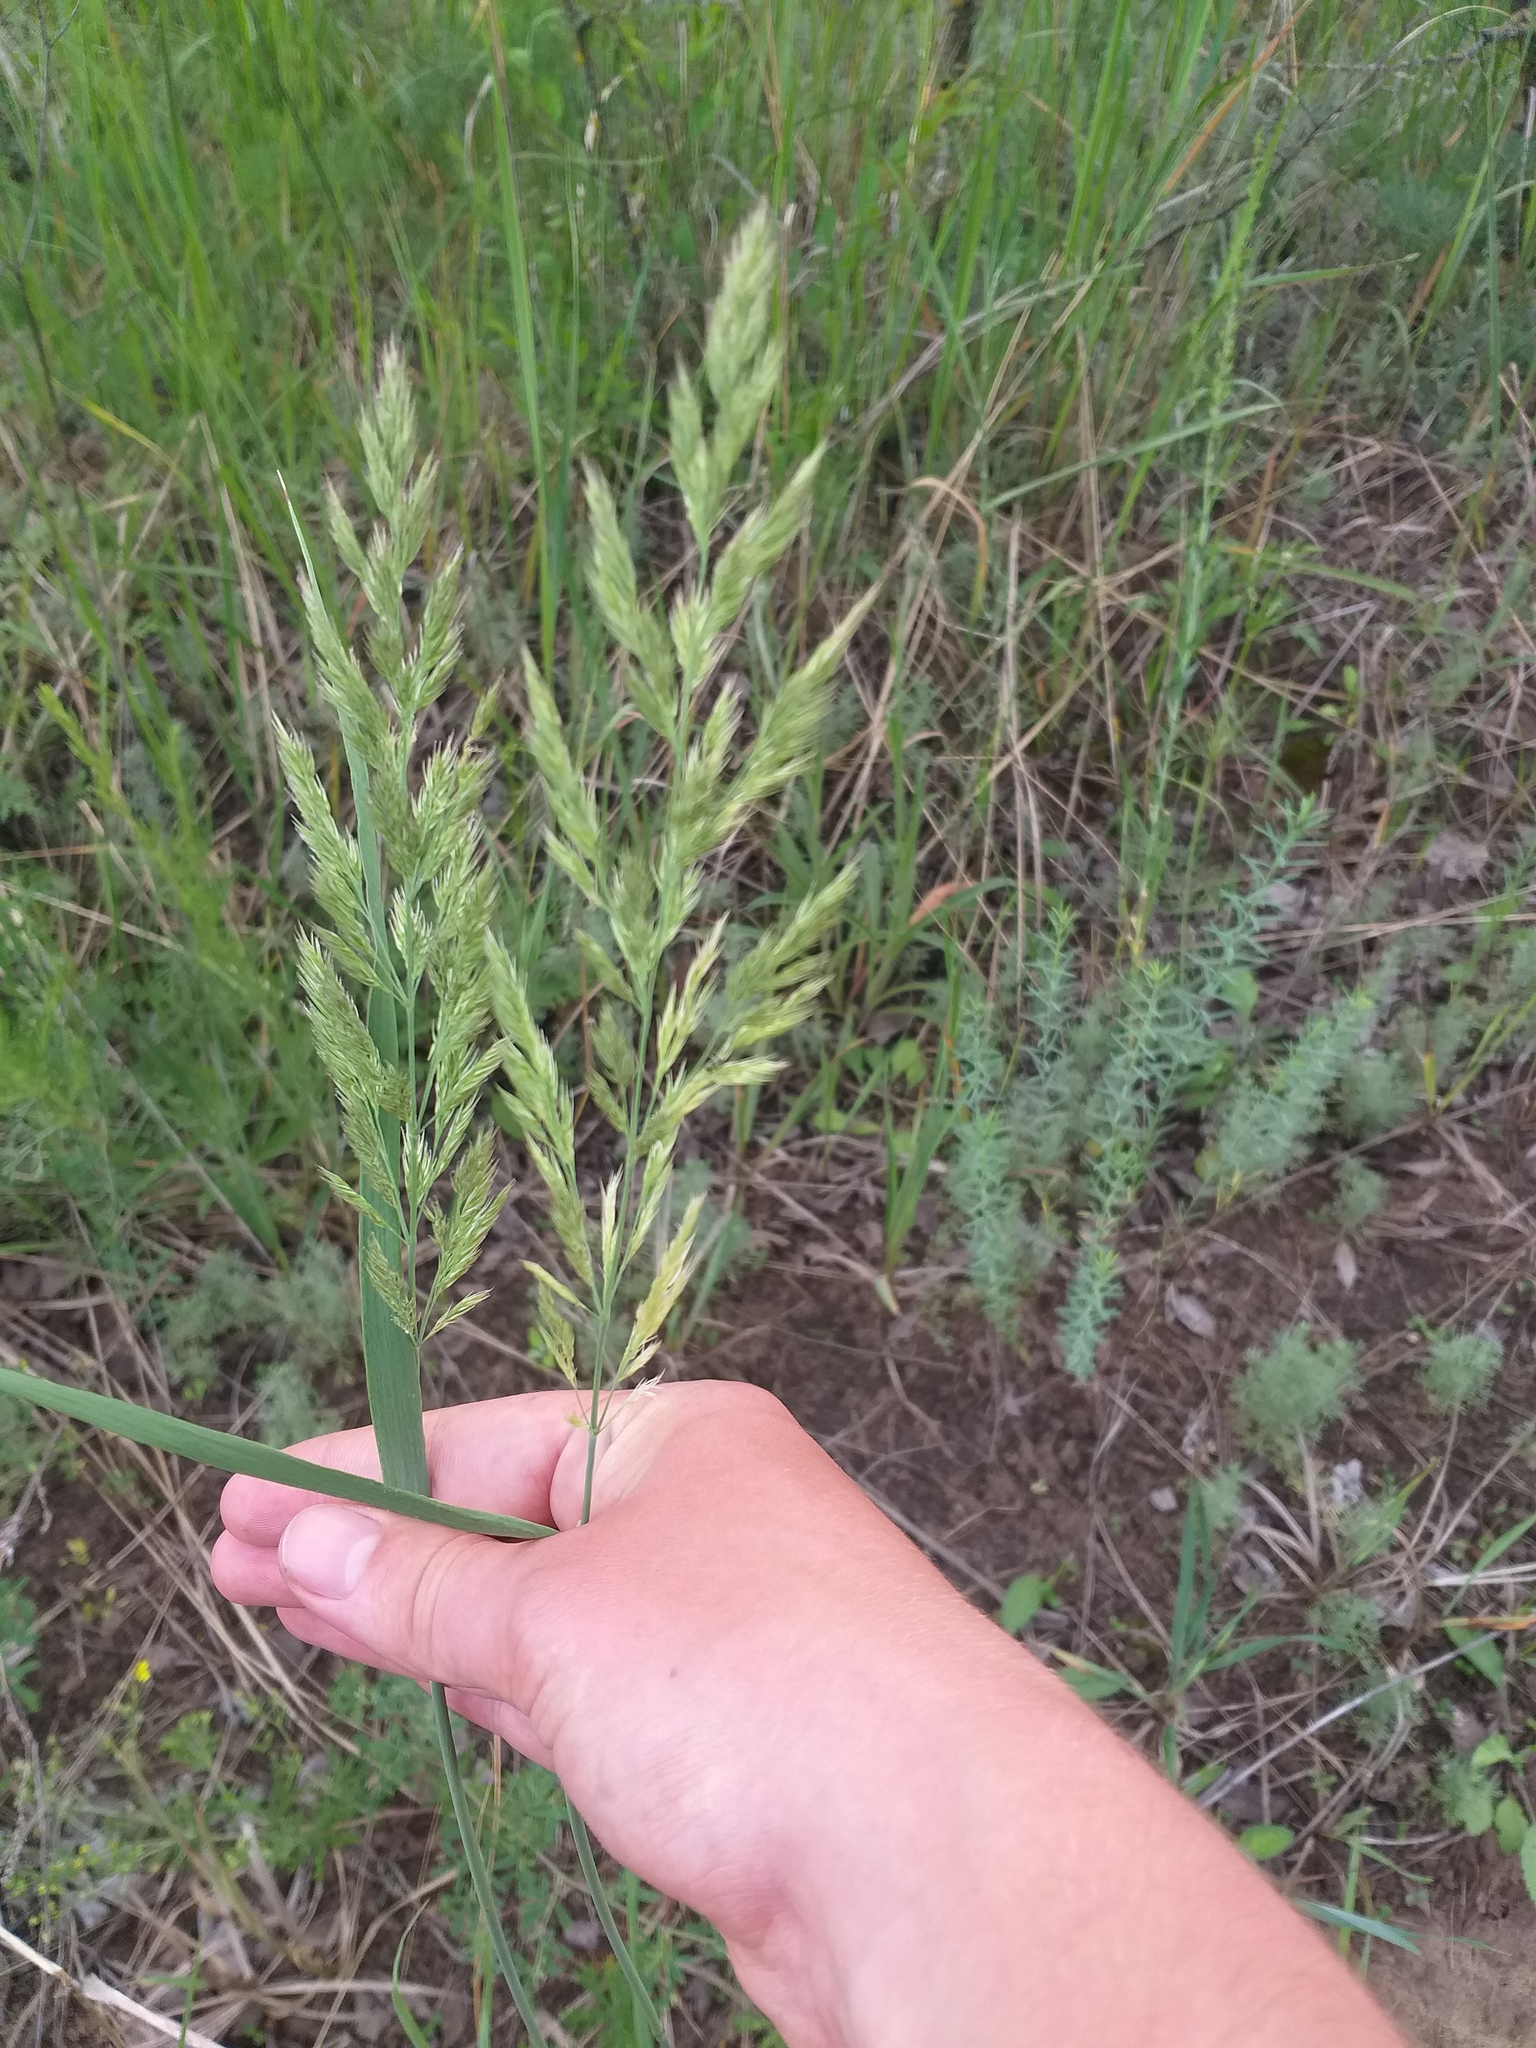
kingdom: Plantae
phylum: Tracheophyta
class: Liliopsida
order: Poales
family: Poaceae
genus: Calamagrostis
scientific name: Calamagrostis epigejos
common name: Wood small-reed
